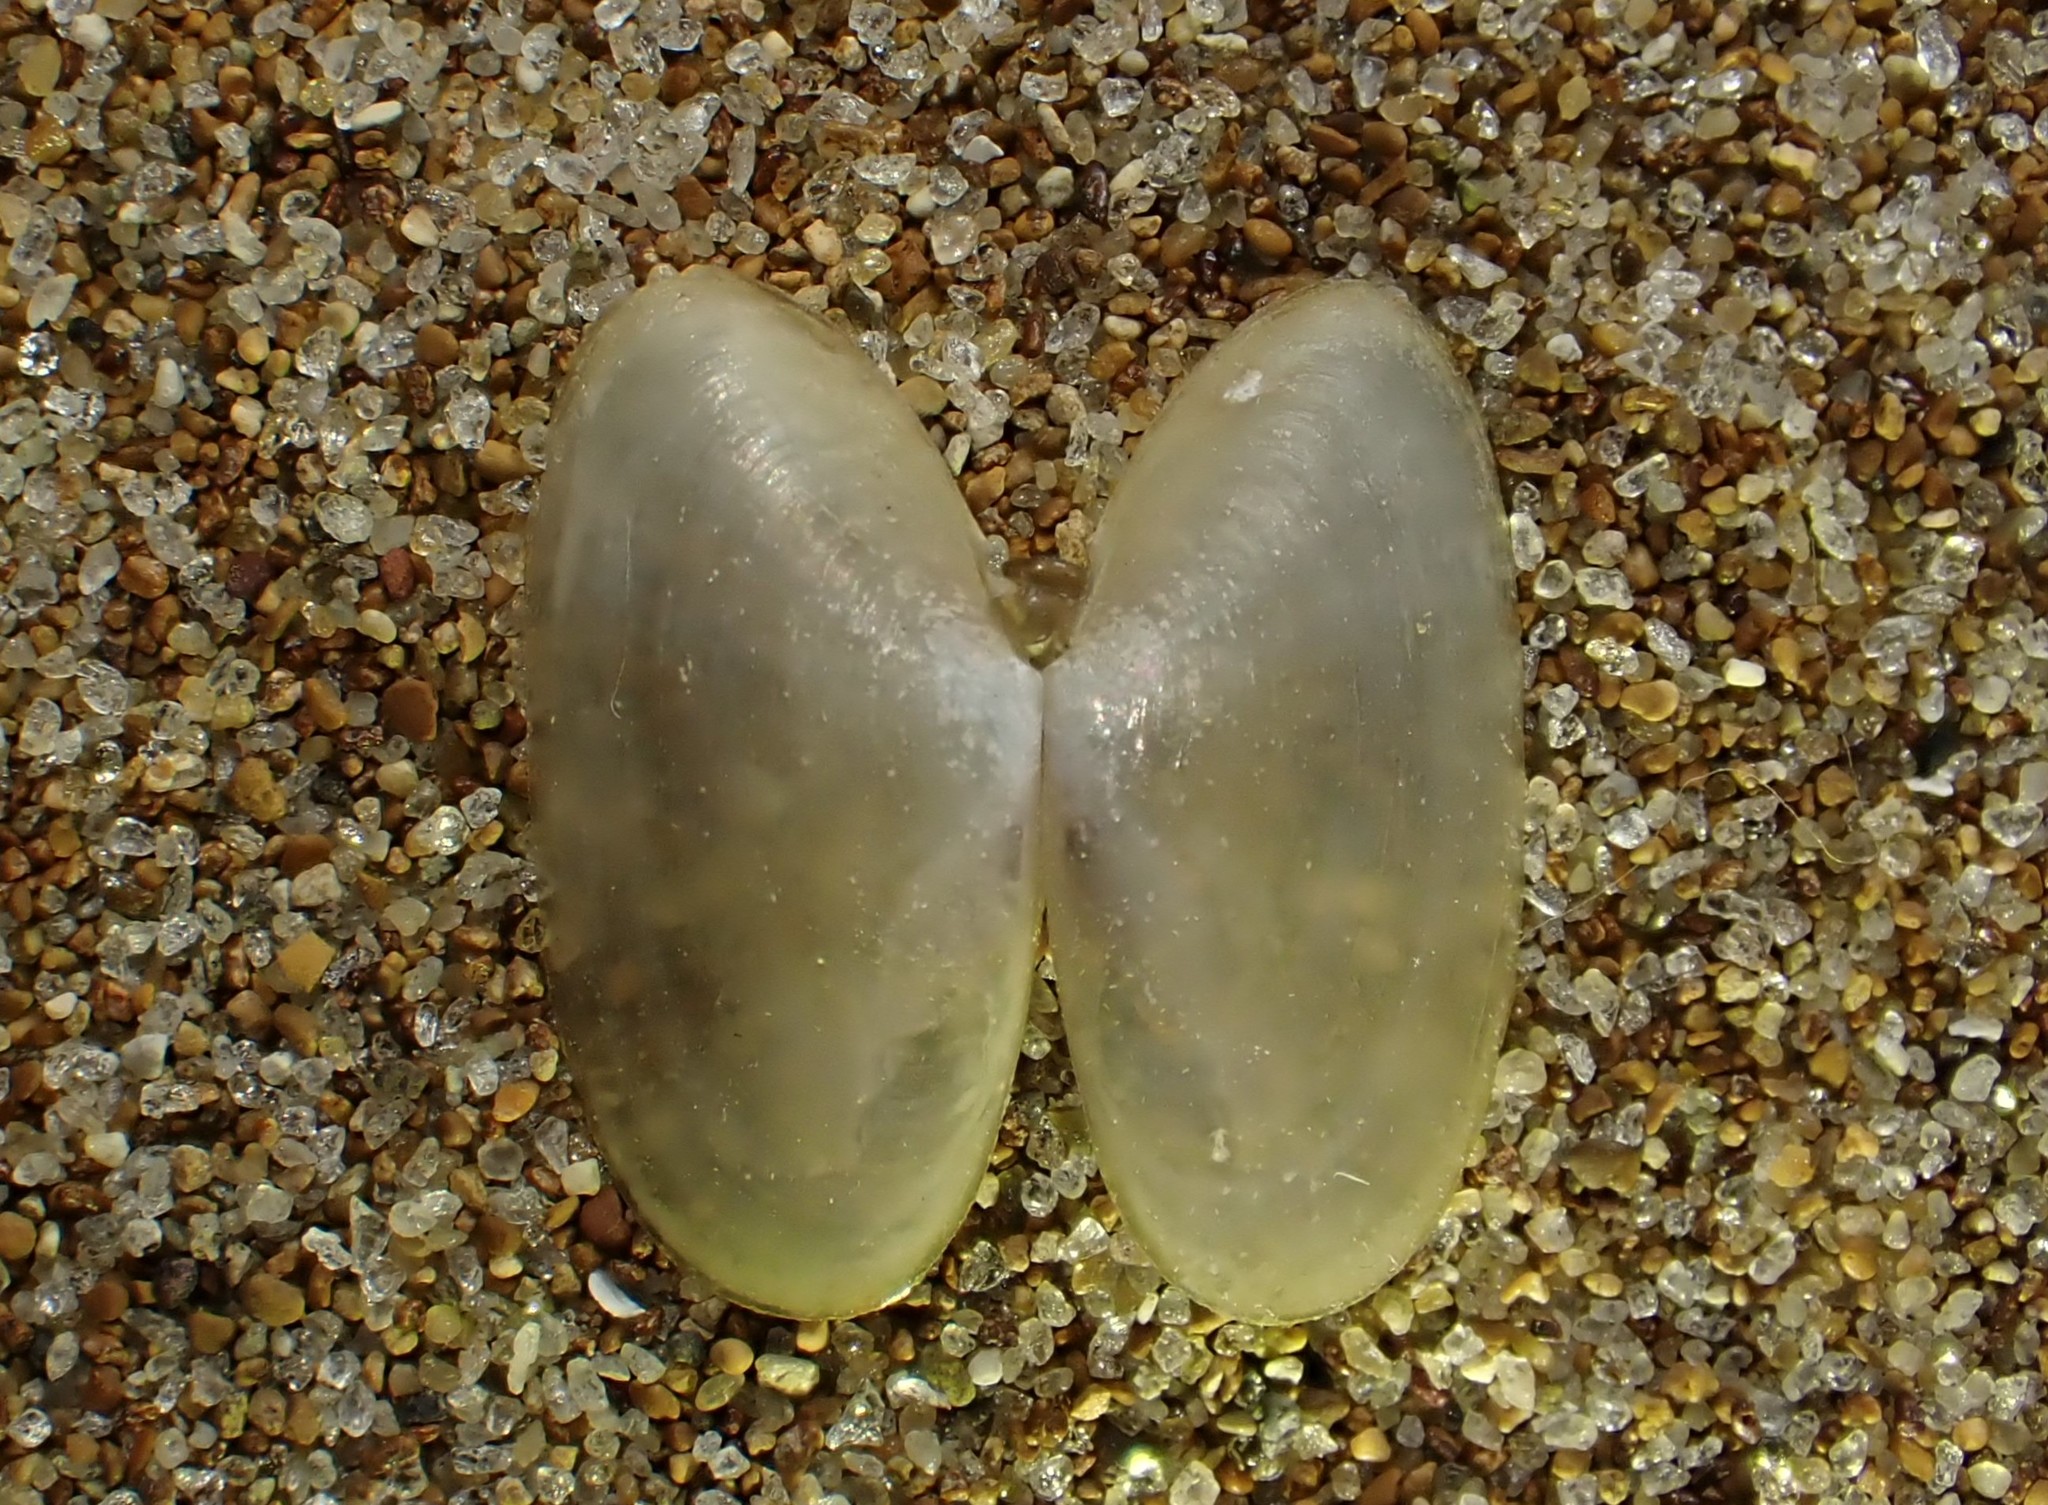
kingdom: Animalia
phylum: Mollusca
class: Bivalvia
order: Cardiida
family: Psammobiidae
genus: Hiatula
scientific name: Hiatula siliquens
